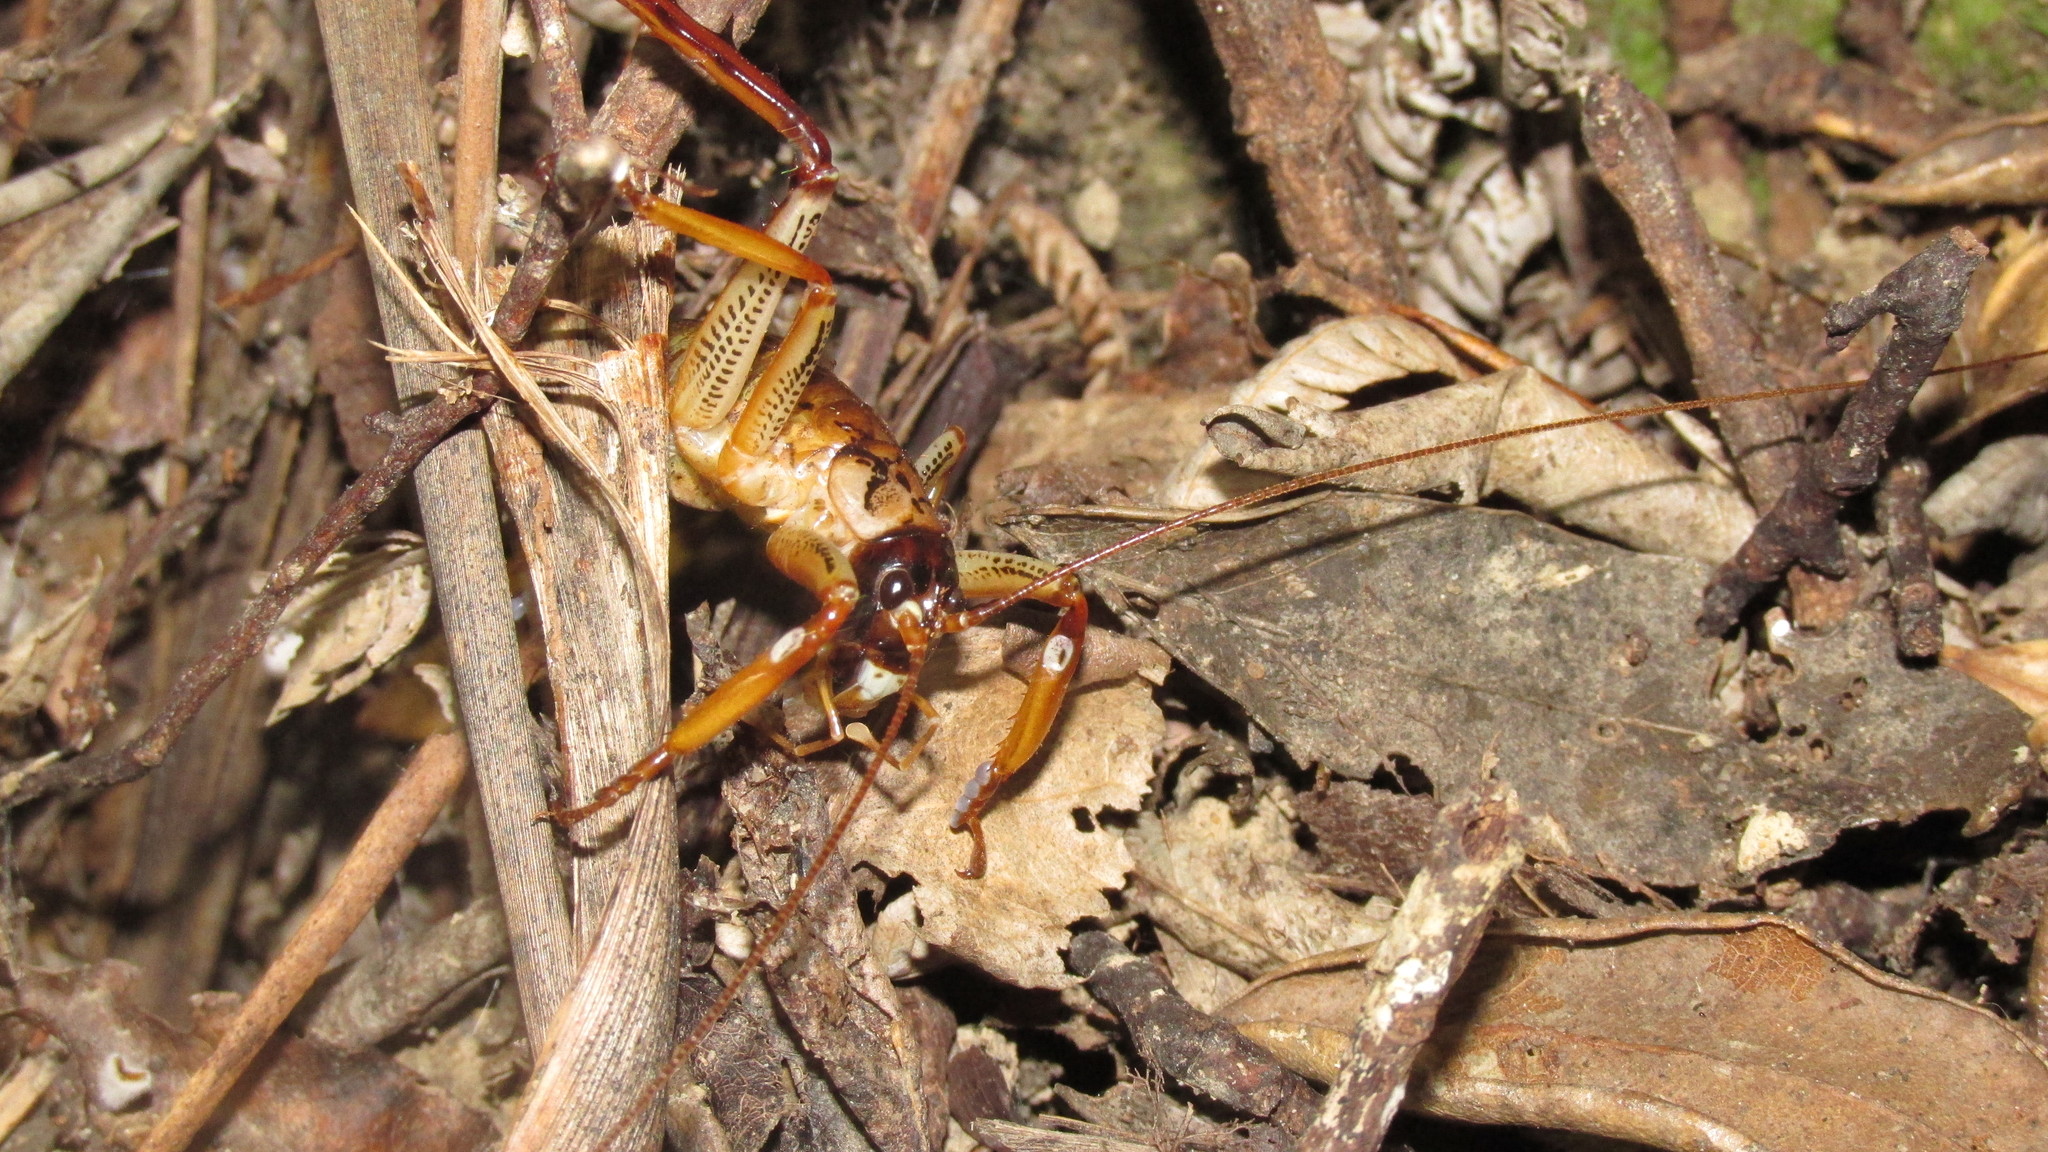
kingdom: Animalia
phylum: Arthropoda
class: Insecta
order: Orthoptera
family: Anostostomatidae
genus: Hemideina
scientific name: Hemideina thoracica
